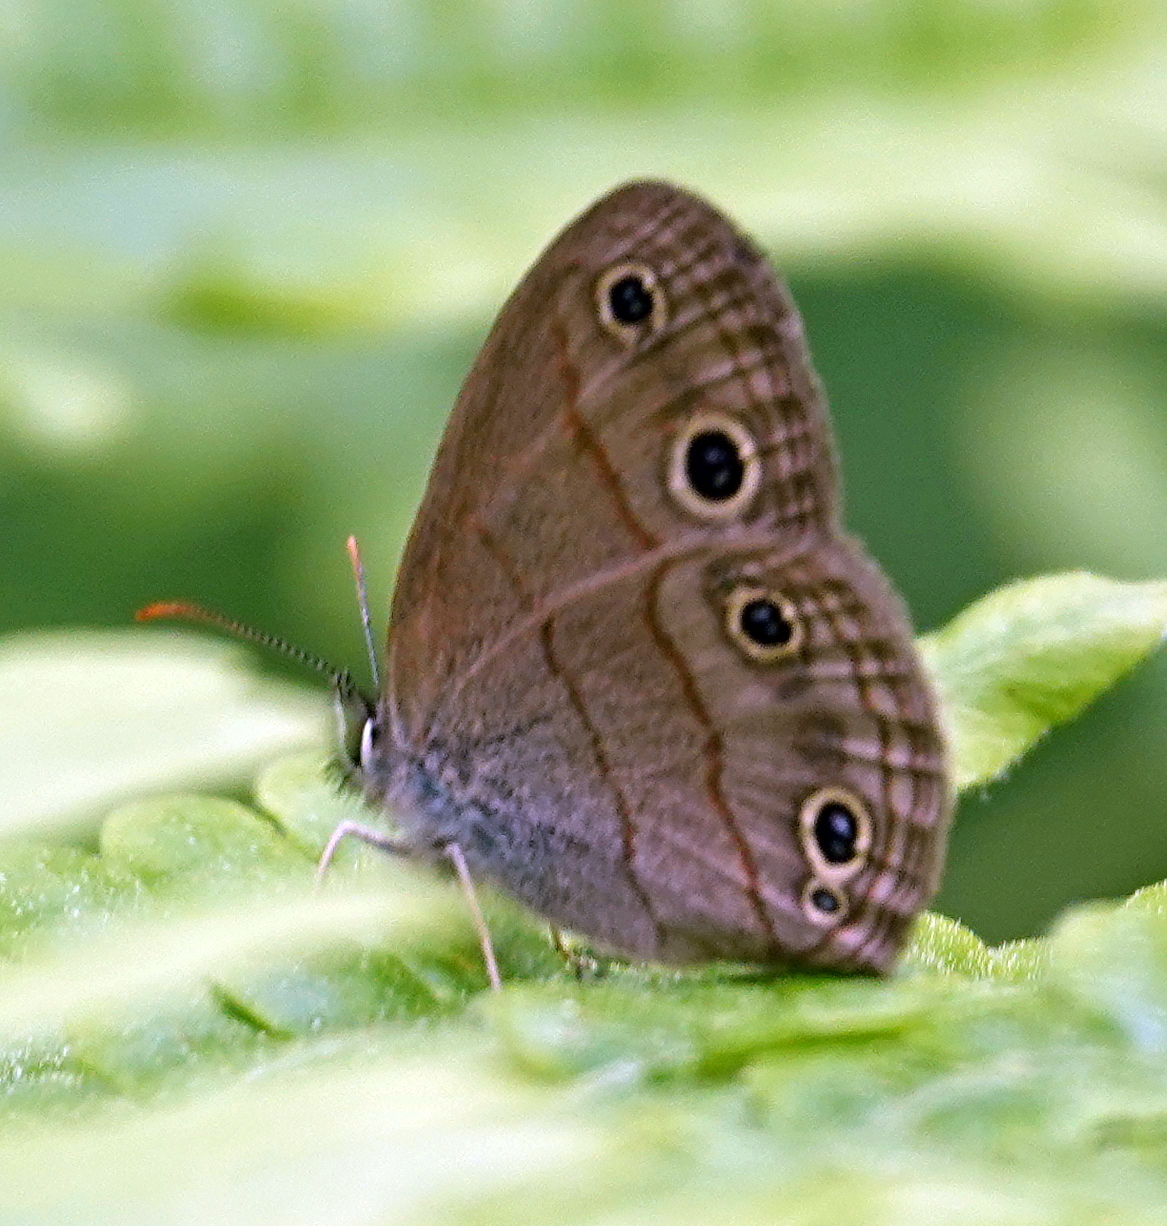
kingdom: Animalia
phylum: Arthropoda
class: Insecta
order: Lepidoptera
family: Nymphalidae
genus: Euptychia
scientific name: Euptychia cymela
